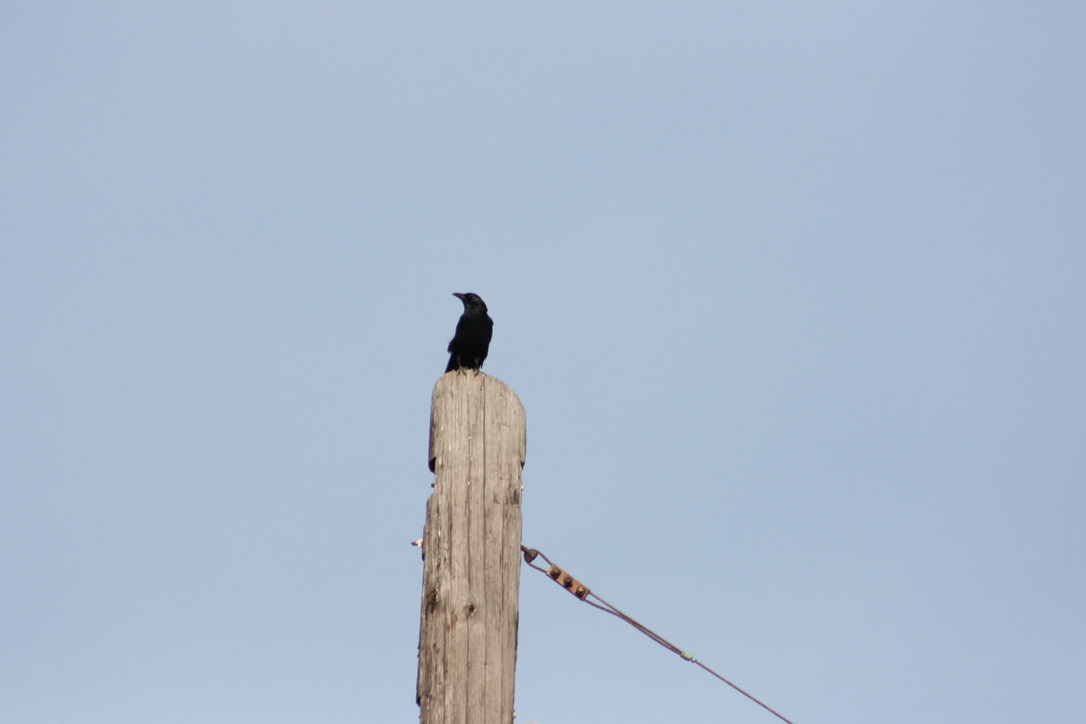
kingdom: Animalia
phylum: Chordata
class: Aves
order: Passeriformes
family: Corvidae
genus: Corvus
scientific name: Corvus brachyrhynchos
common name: American crow
